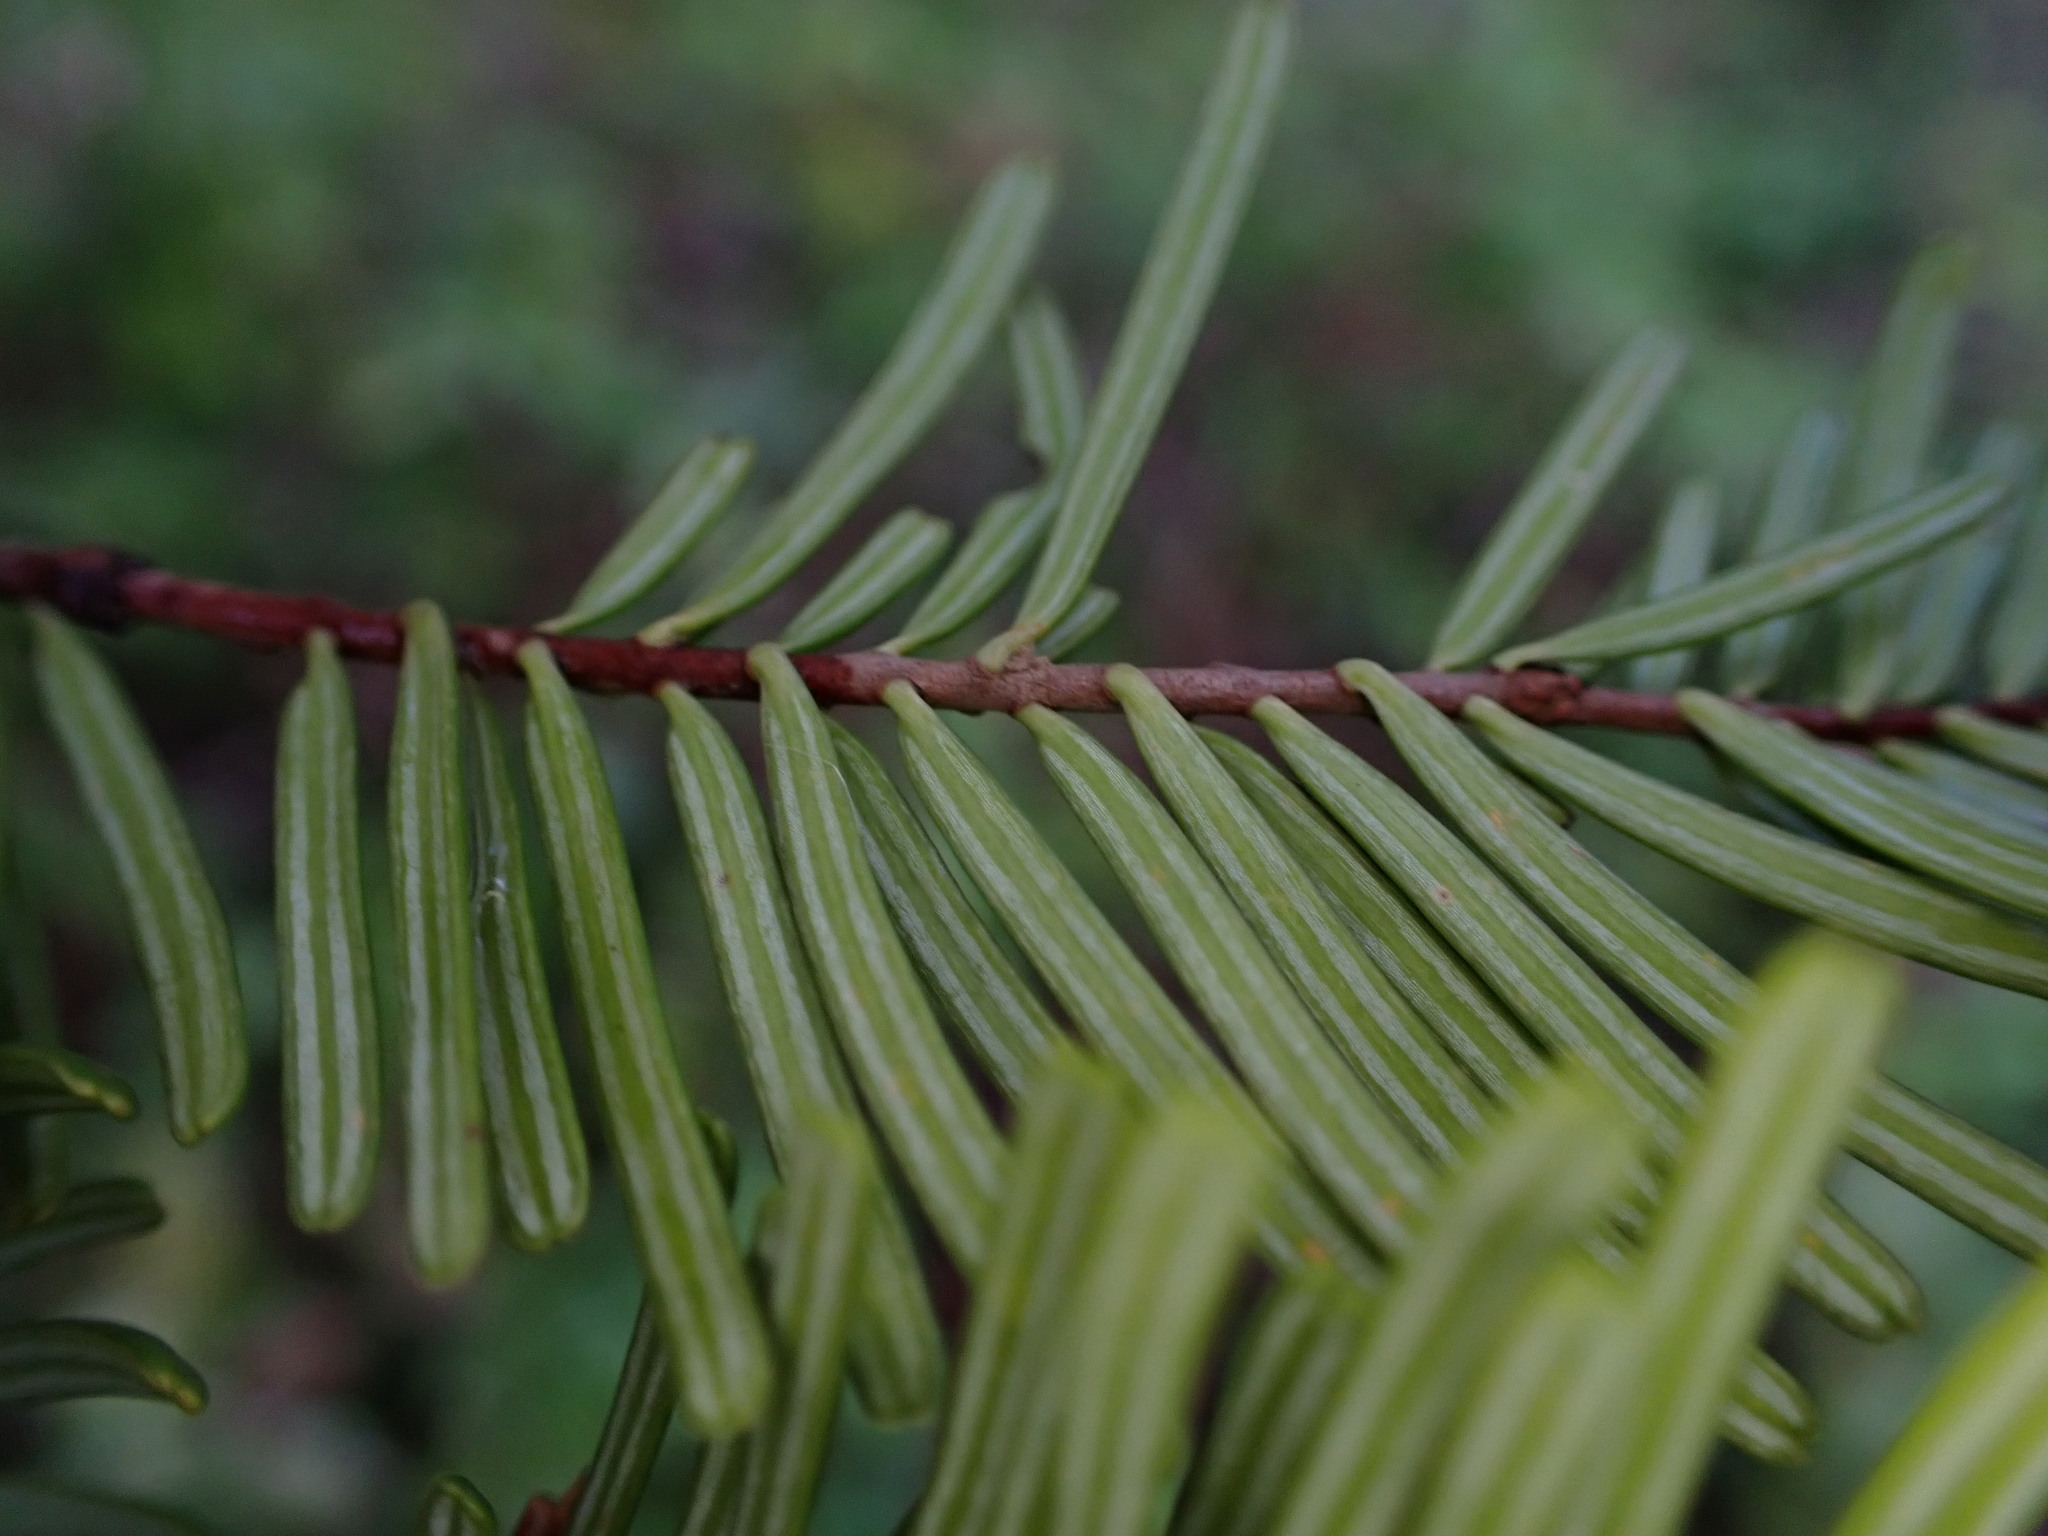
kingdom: Plantae
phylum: Tracheophyta
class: Pinopsida
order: Pinales
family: Pinaceae
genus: Abies
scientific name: Abies grandis
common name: Giant fir
